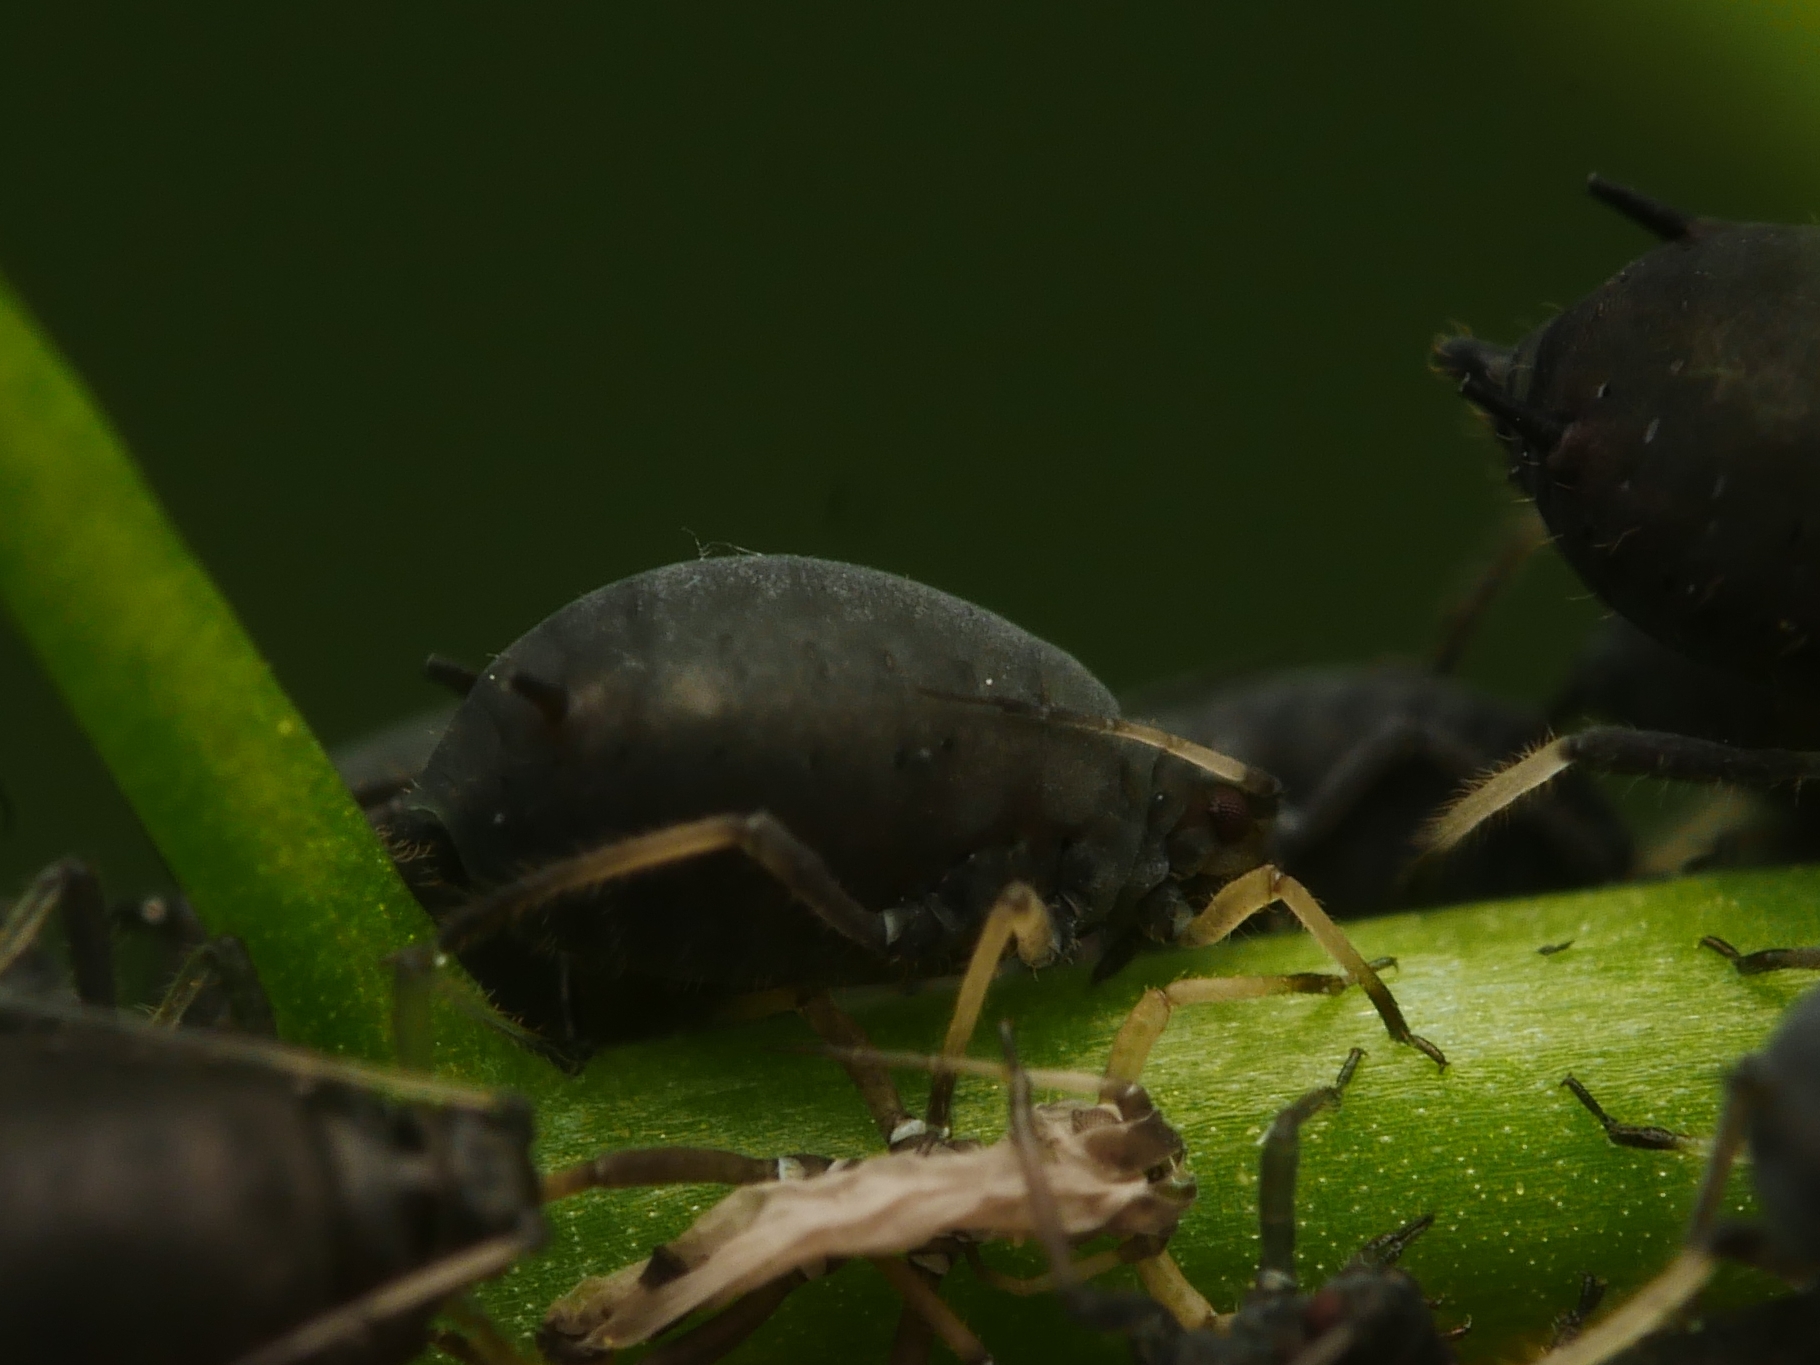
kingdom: Animalia
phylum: Arthropoda
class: Insecta
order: Hemiptera
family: Aphididae
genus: Aphis
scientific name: Aphis fabae
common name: Bean aphid
